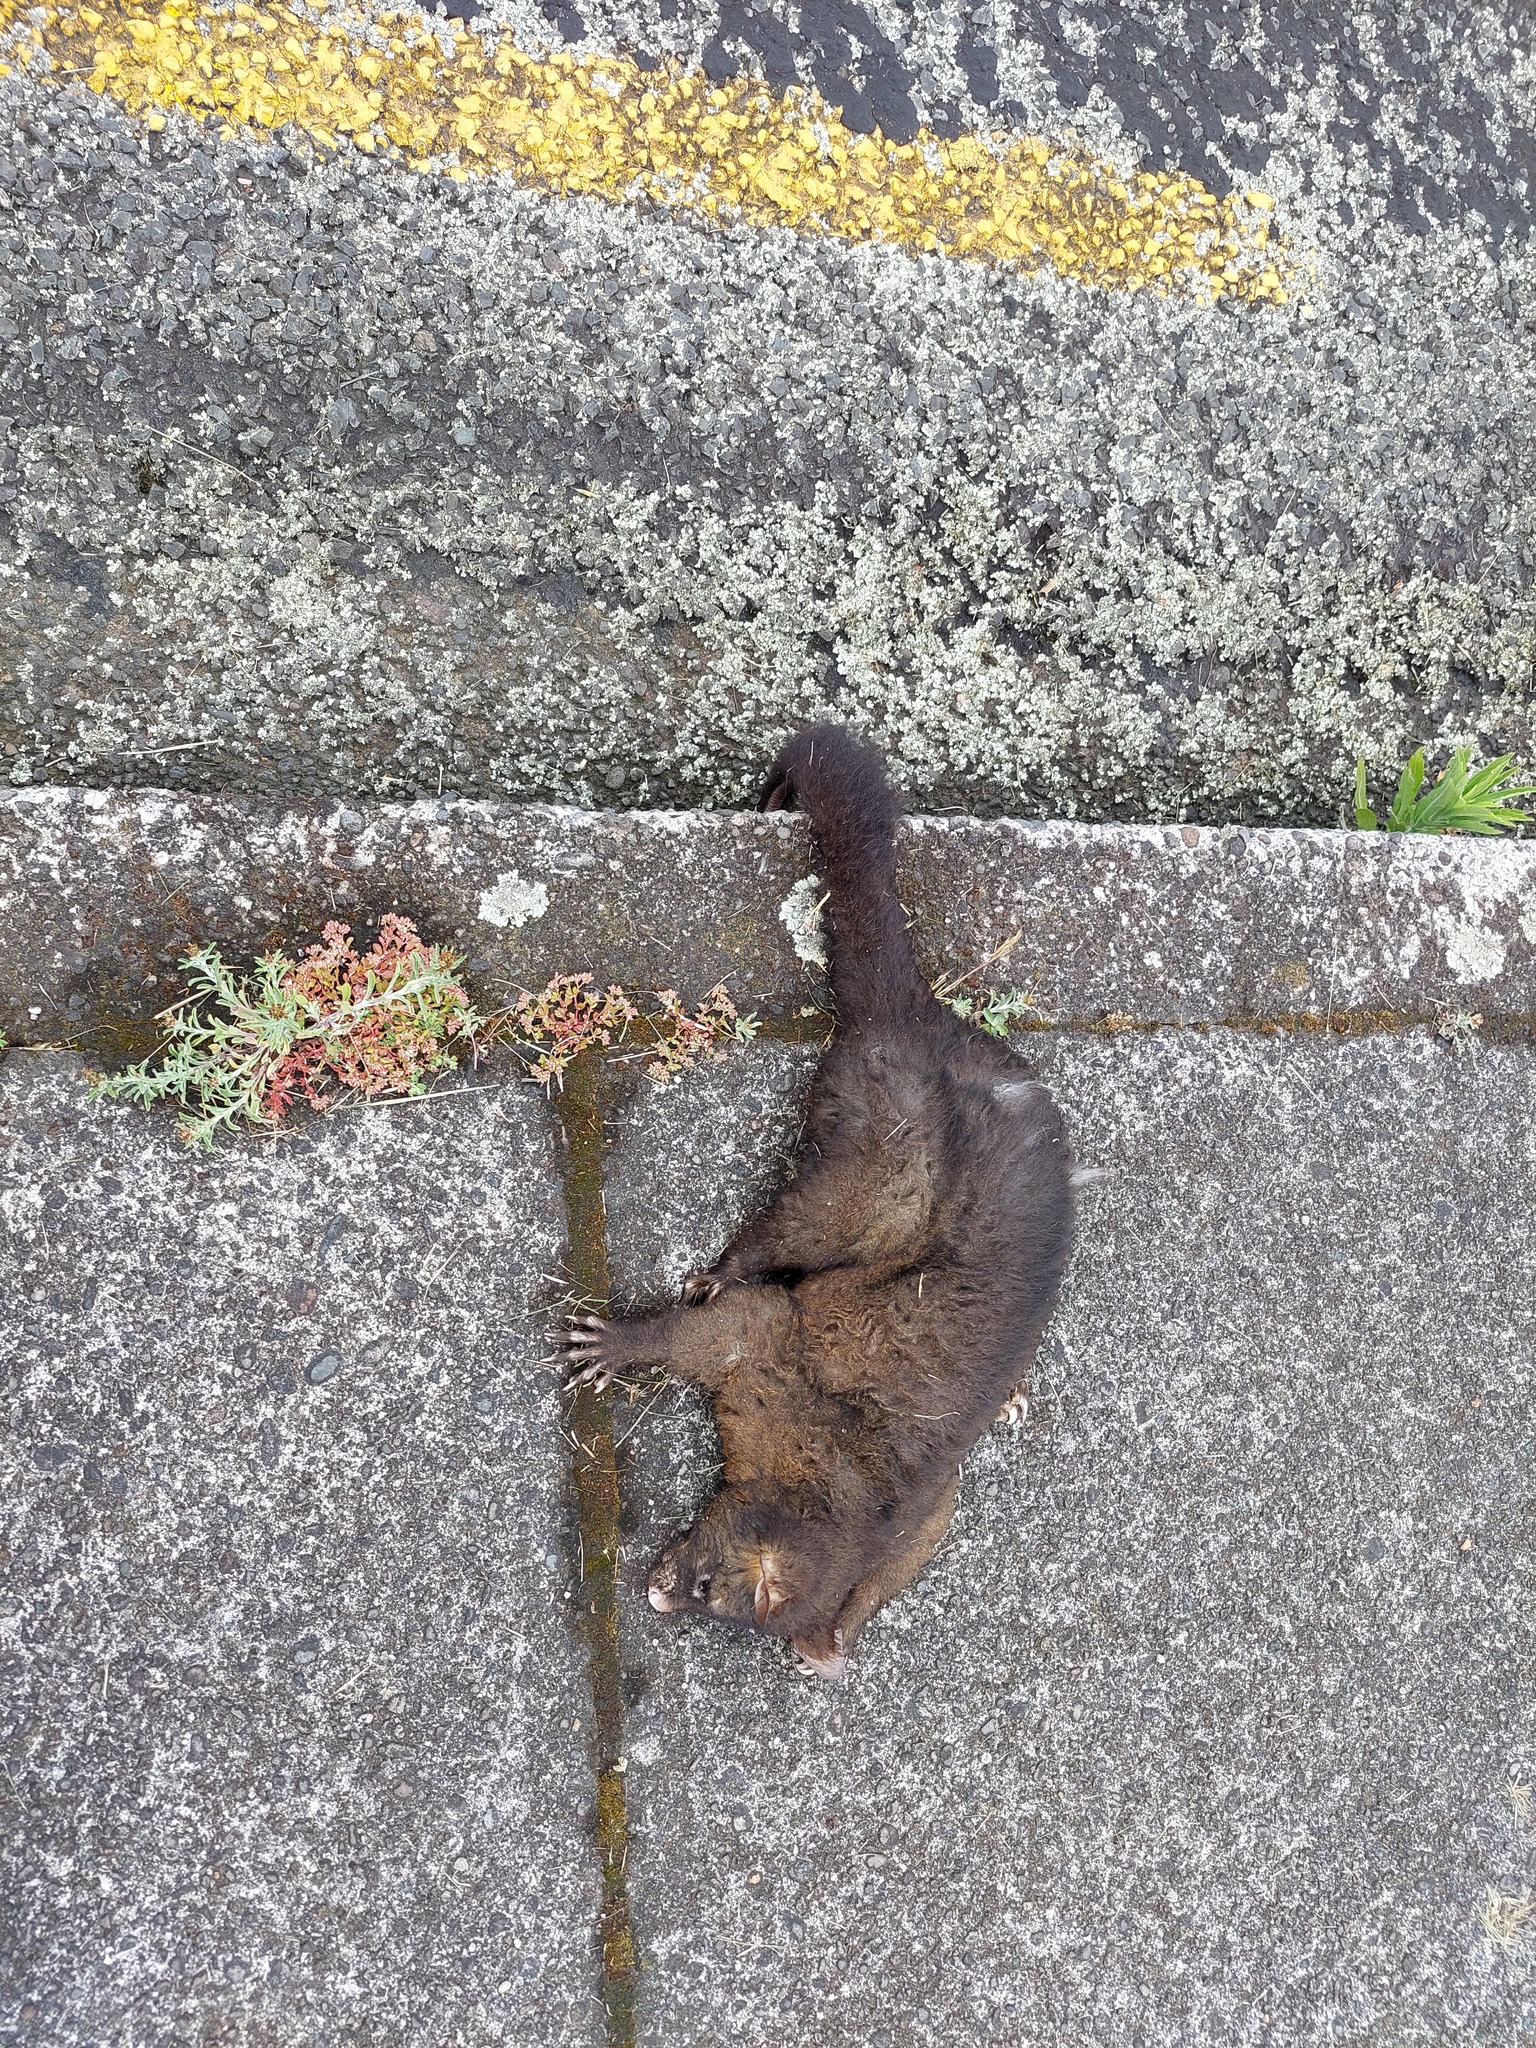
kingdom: Animalia
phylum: Chordata
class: Mammalia
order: Diprotodontia
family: Phalangeridae
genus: Trichosurus
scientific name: Trichosurus vulpecula
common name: Common brushtail
